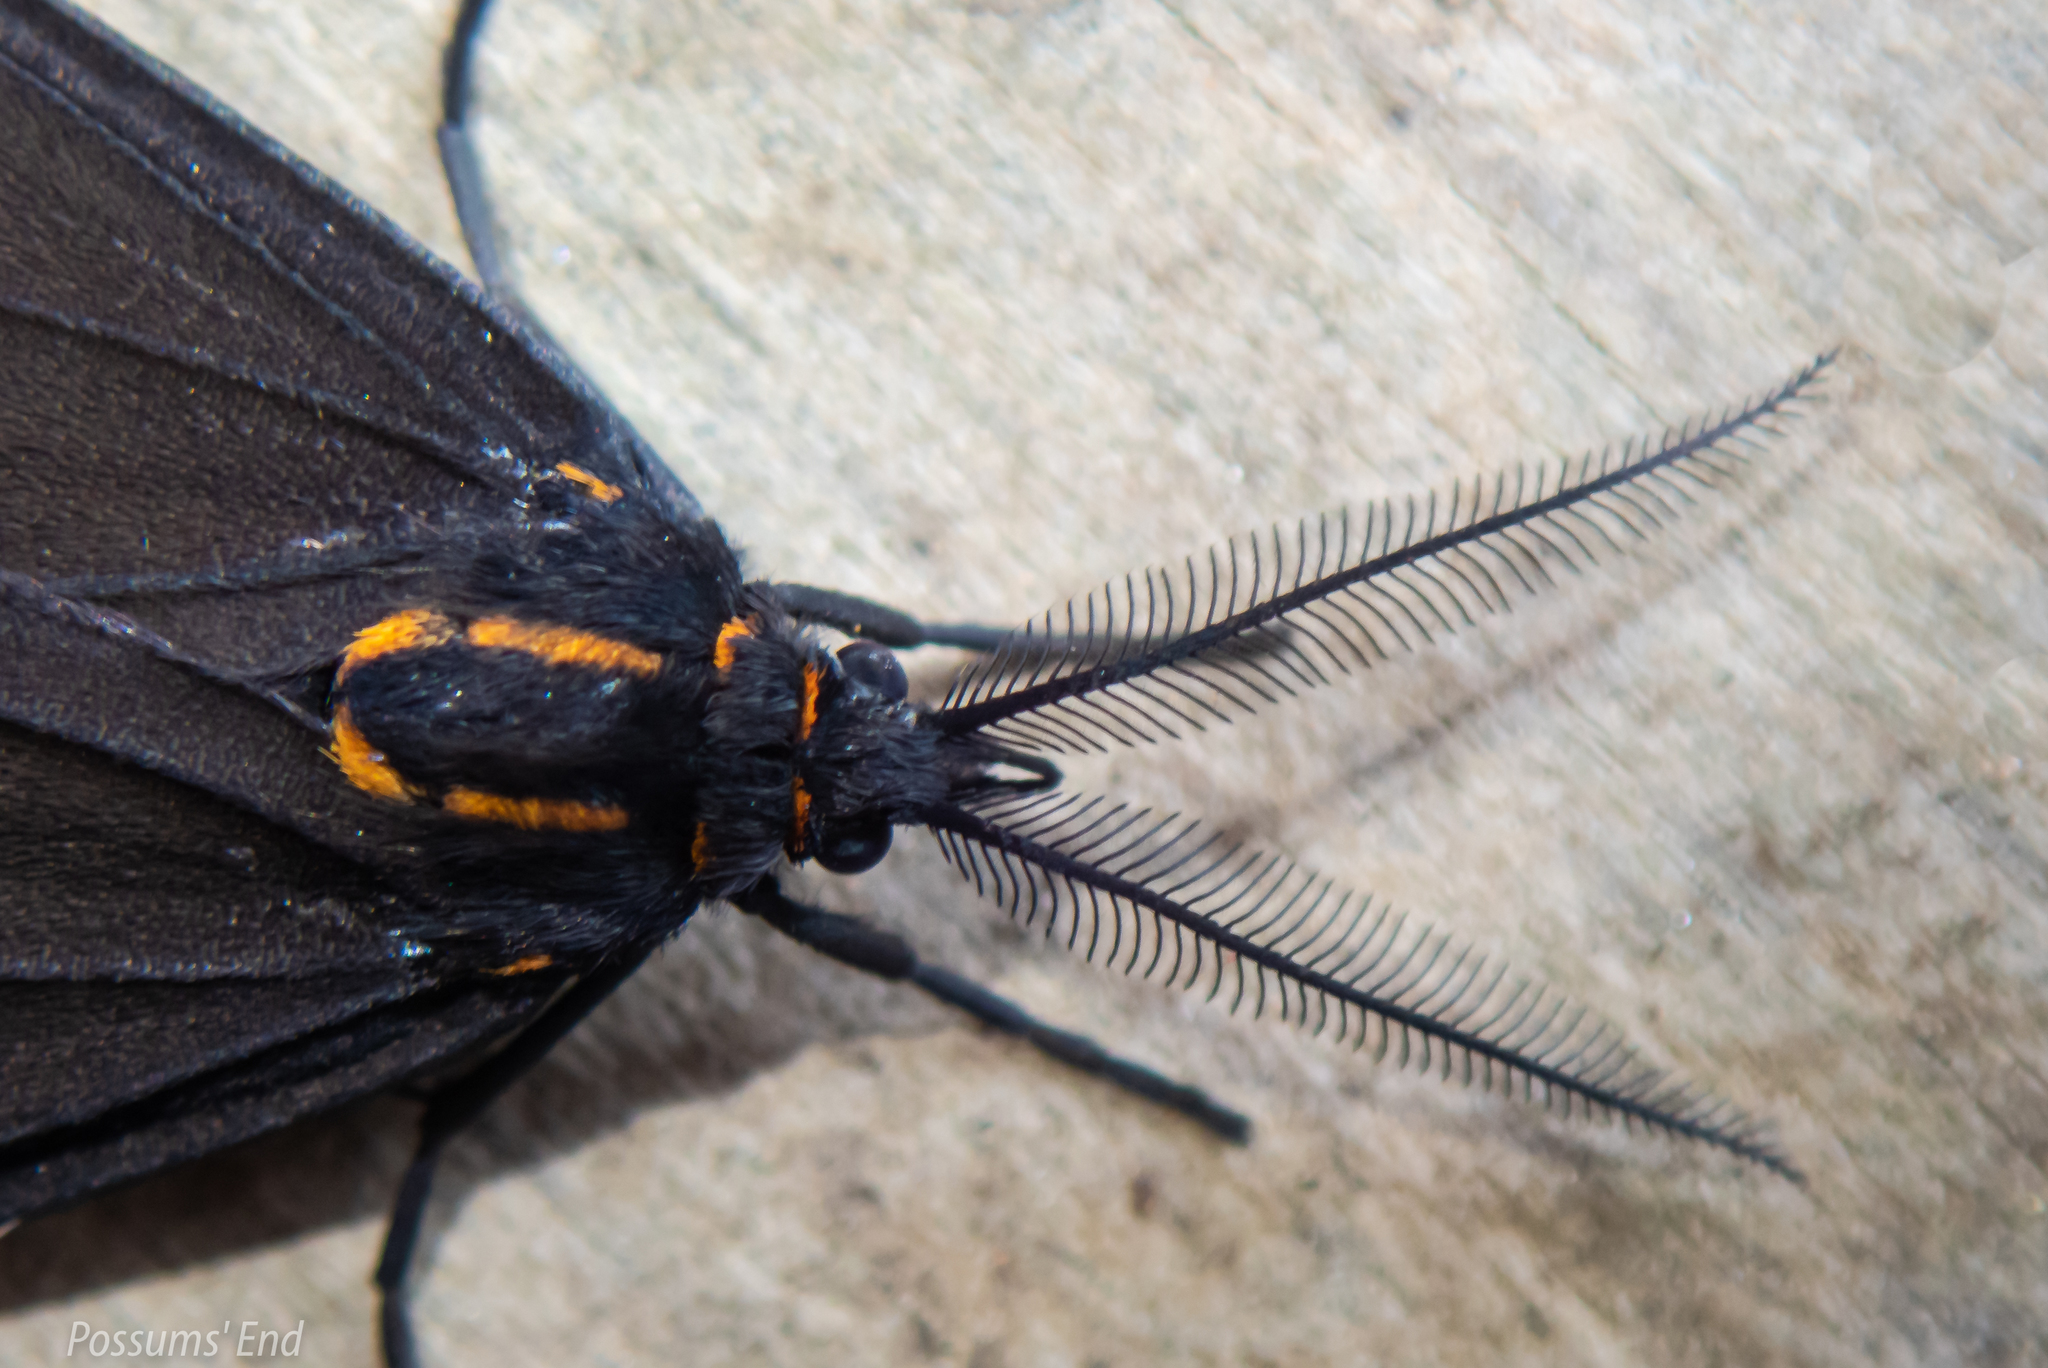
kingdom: Animalia
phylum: Arthropoda
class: Insecta
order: Lepidoptera
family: Erebidae
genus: Nyctemera
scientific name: Nyctemera annulatum
